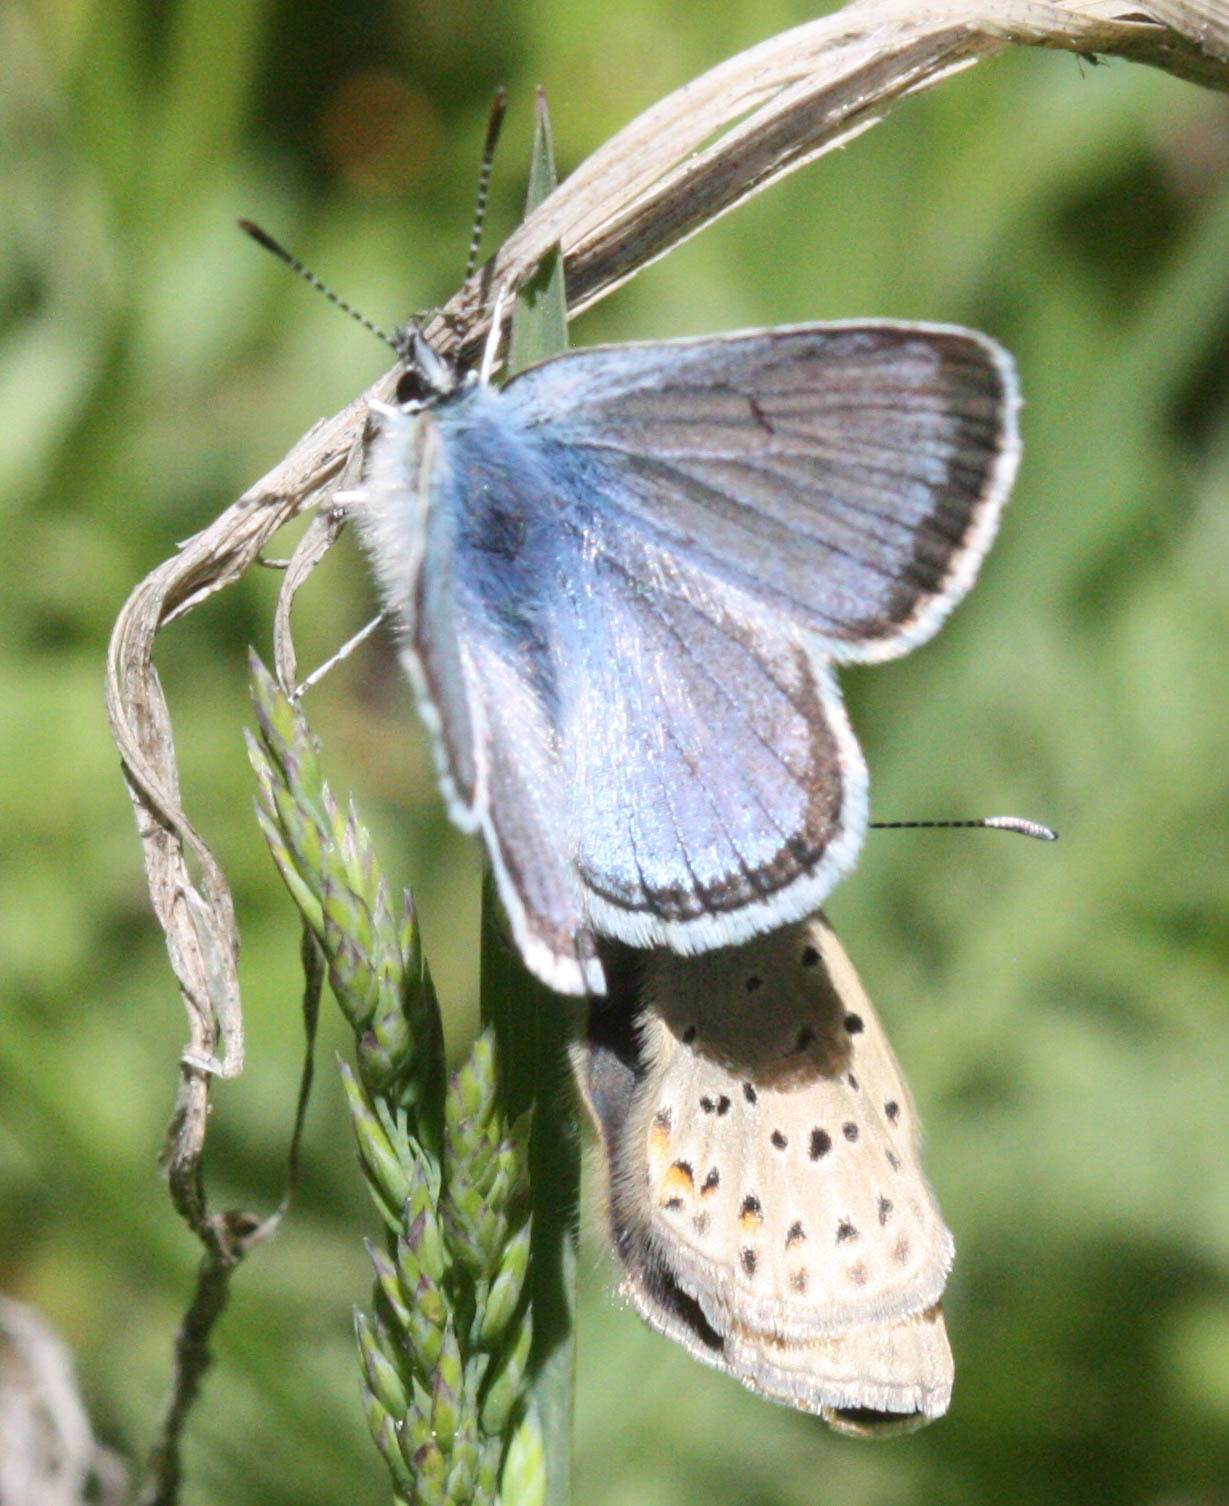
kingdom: Animalia
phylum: Arthropoda
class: Insecta
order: Lepidoptera
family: Lycaenidae
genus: Icaricia
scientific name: Icaricia saepiolus
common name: Greenish blue
